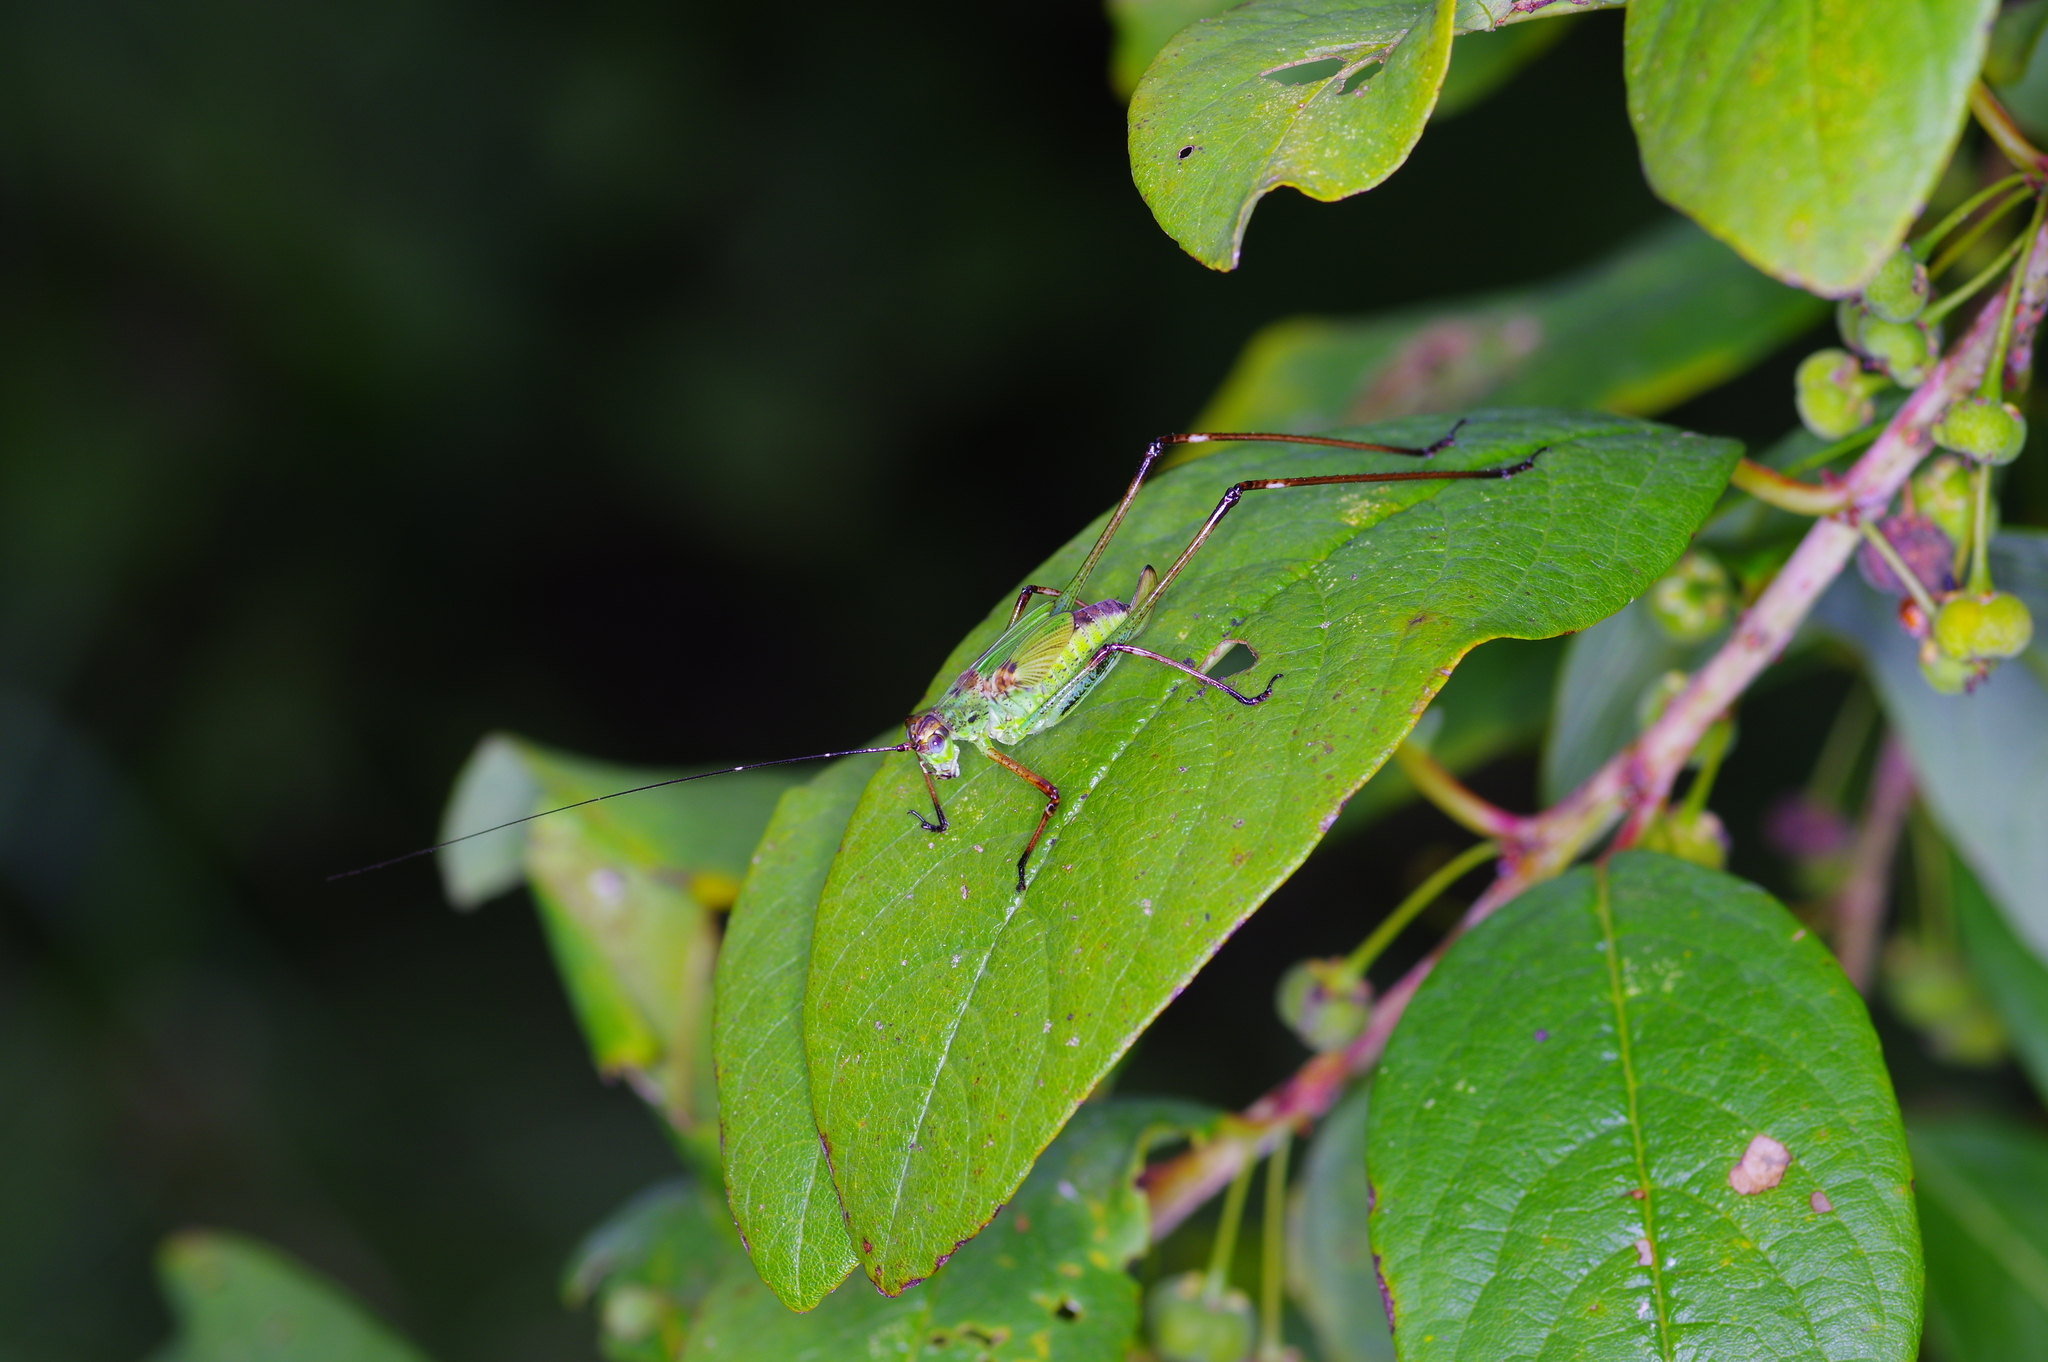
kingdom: Animalia
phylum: Arthropoda
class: Insecta
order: Orthoptera
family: Tettigoniidae
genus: Phaneroptera
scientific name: Phaneroptera nigroantennata
